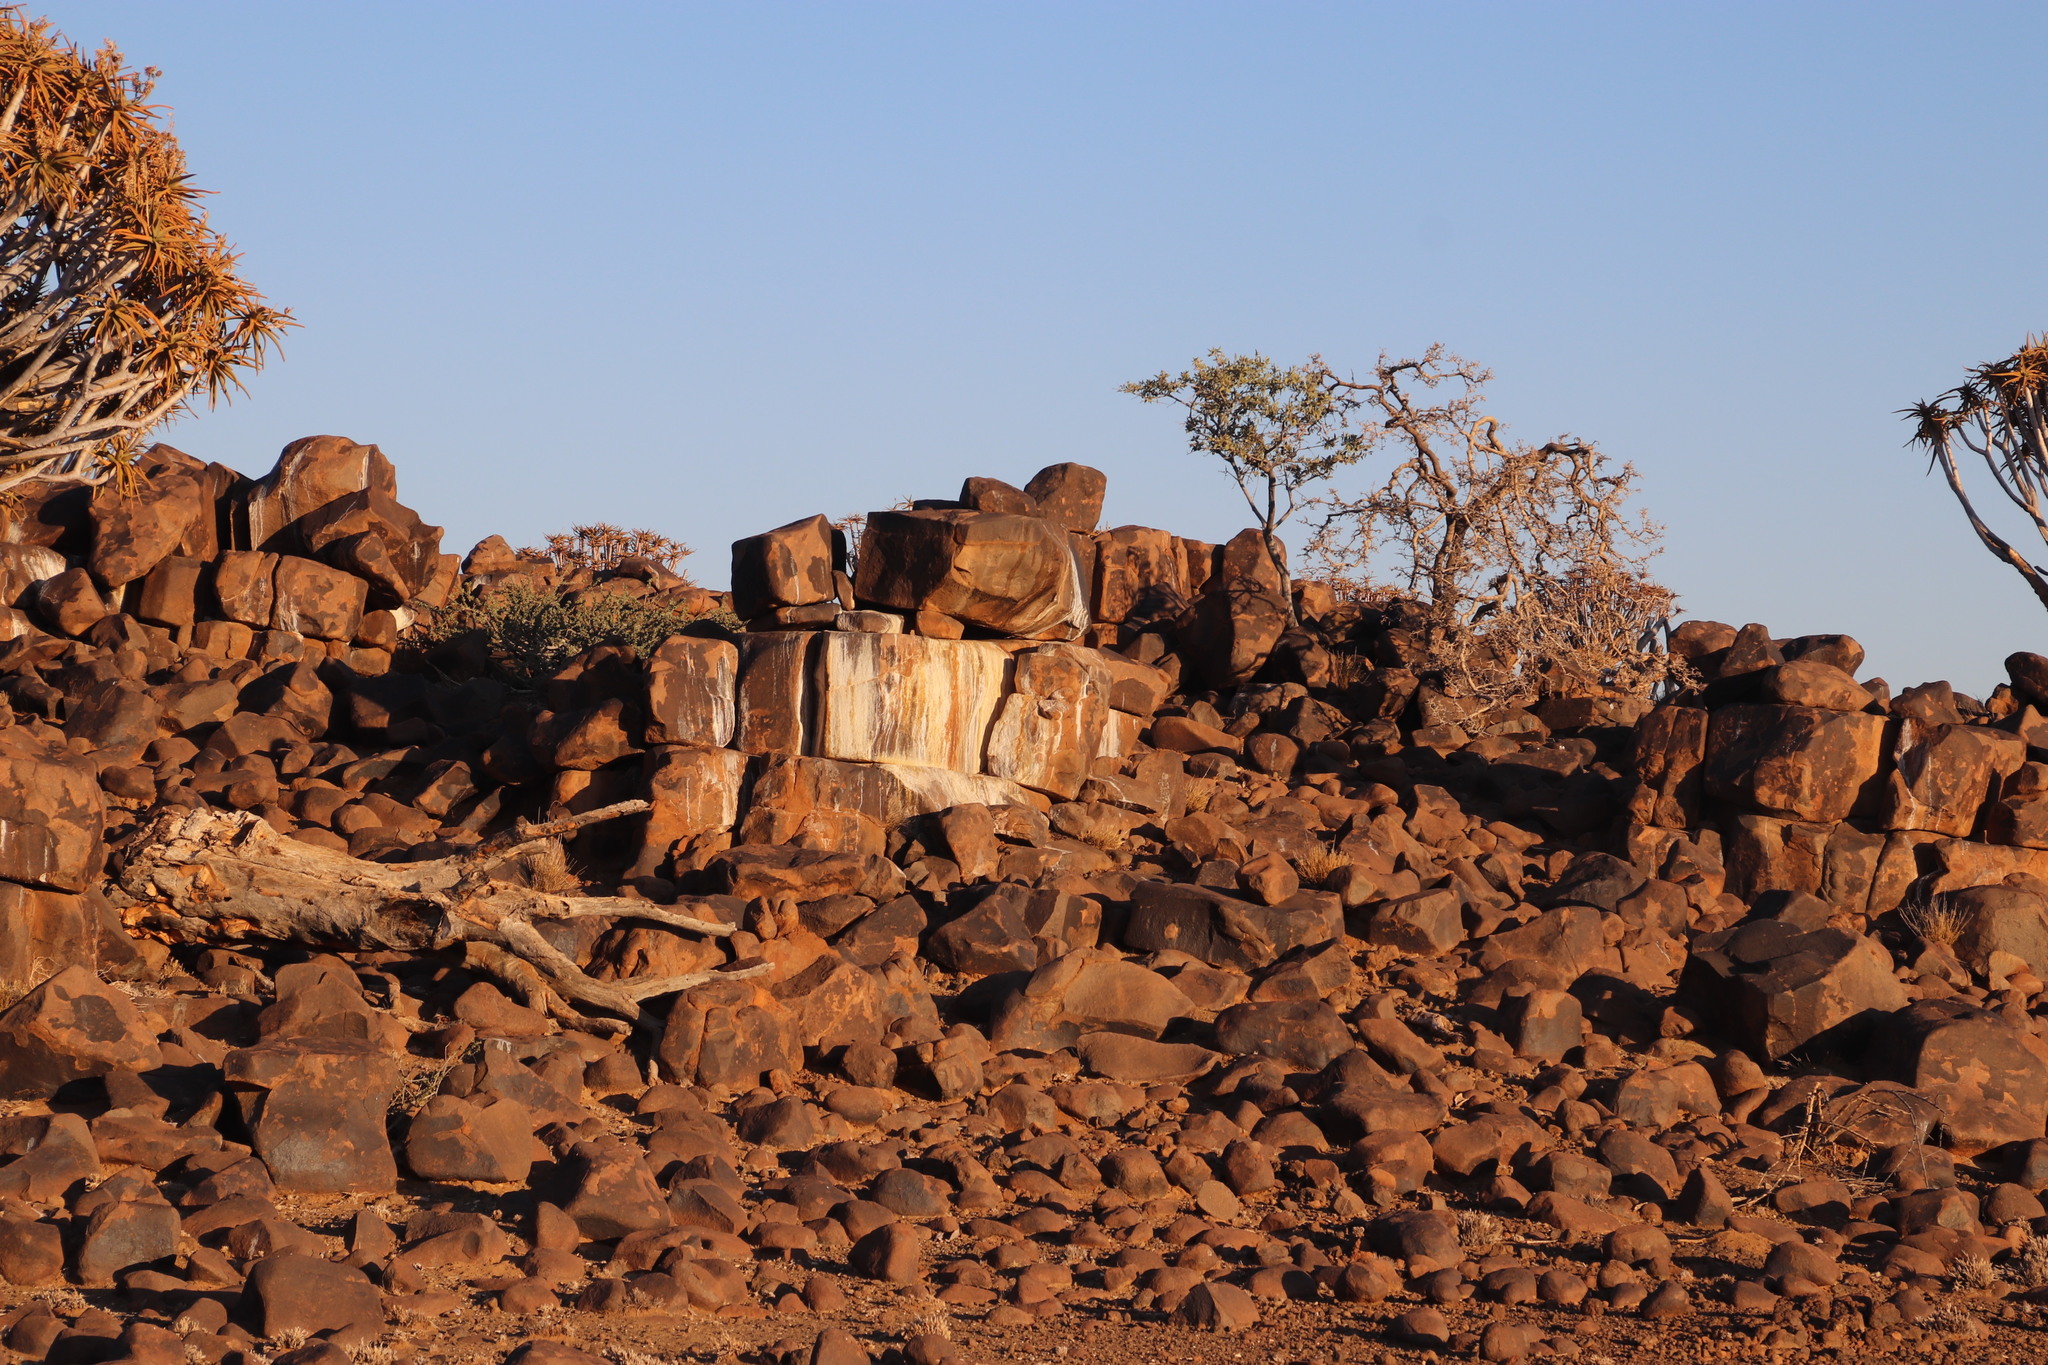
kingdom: Animalia
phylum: Chordata
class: Mammalia
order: Hyracoidea
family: Procaviidae
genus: Procavia
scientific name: Procavia capensis
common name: Rock hyrax
